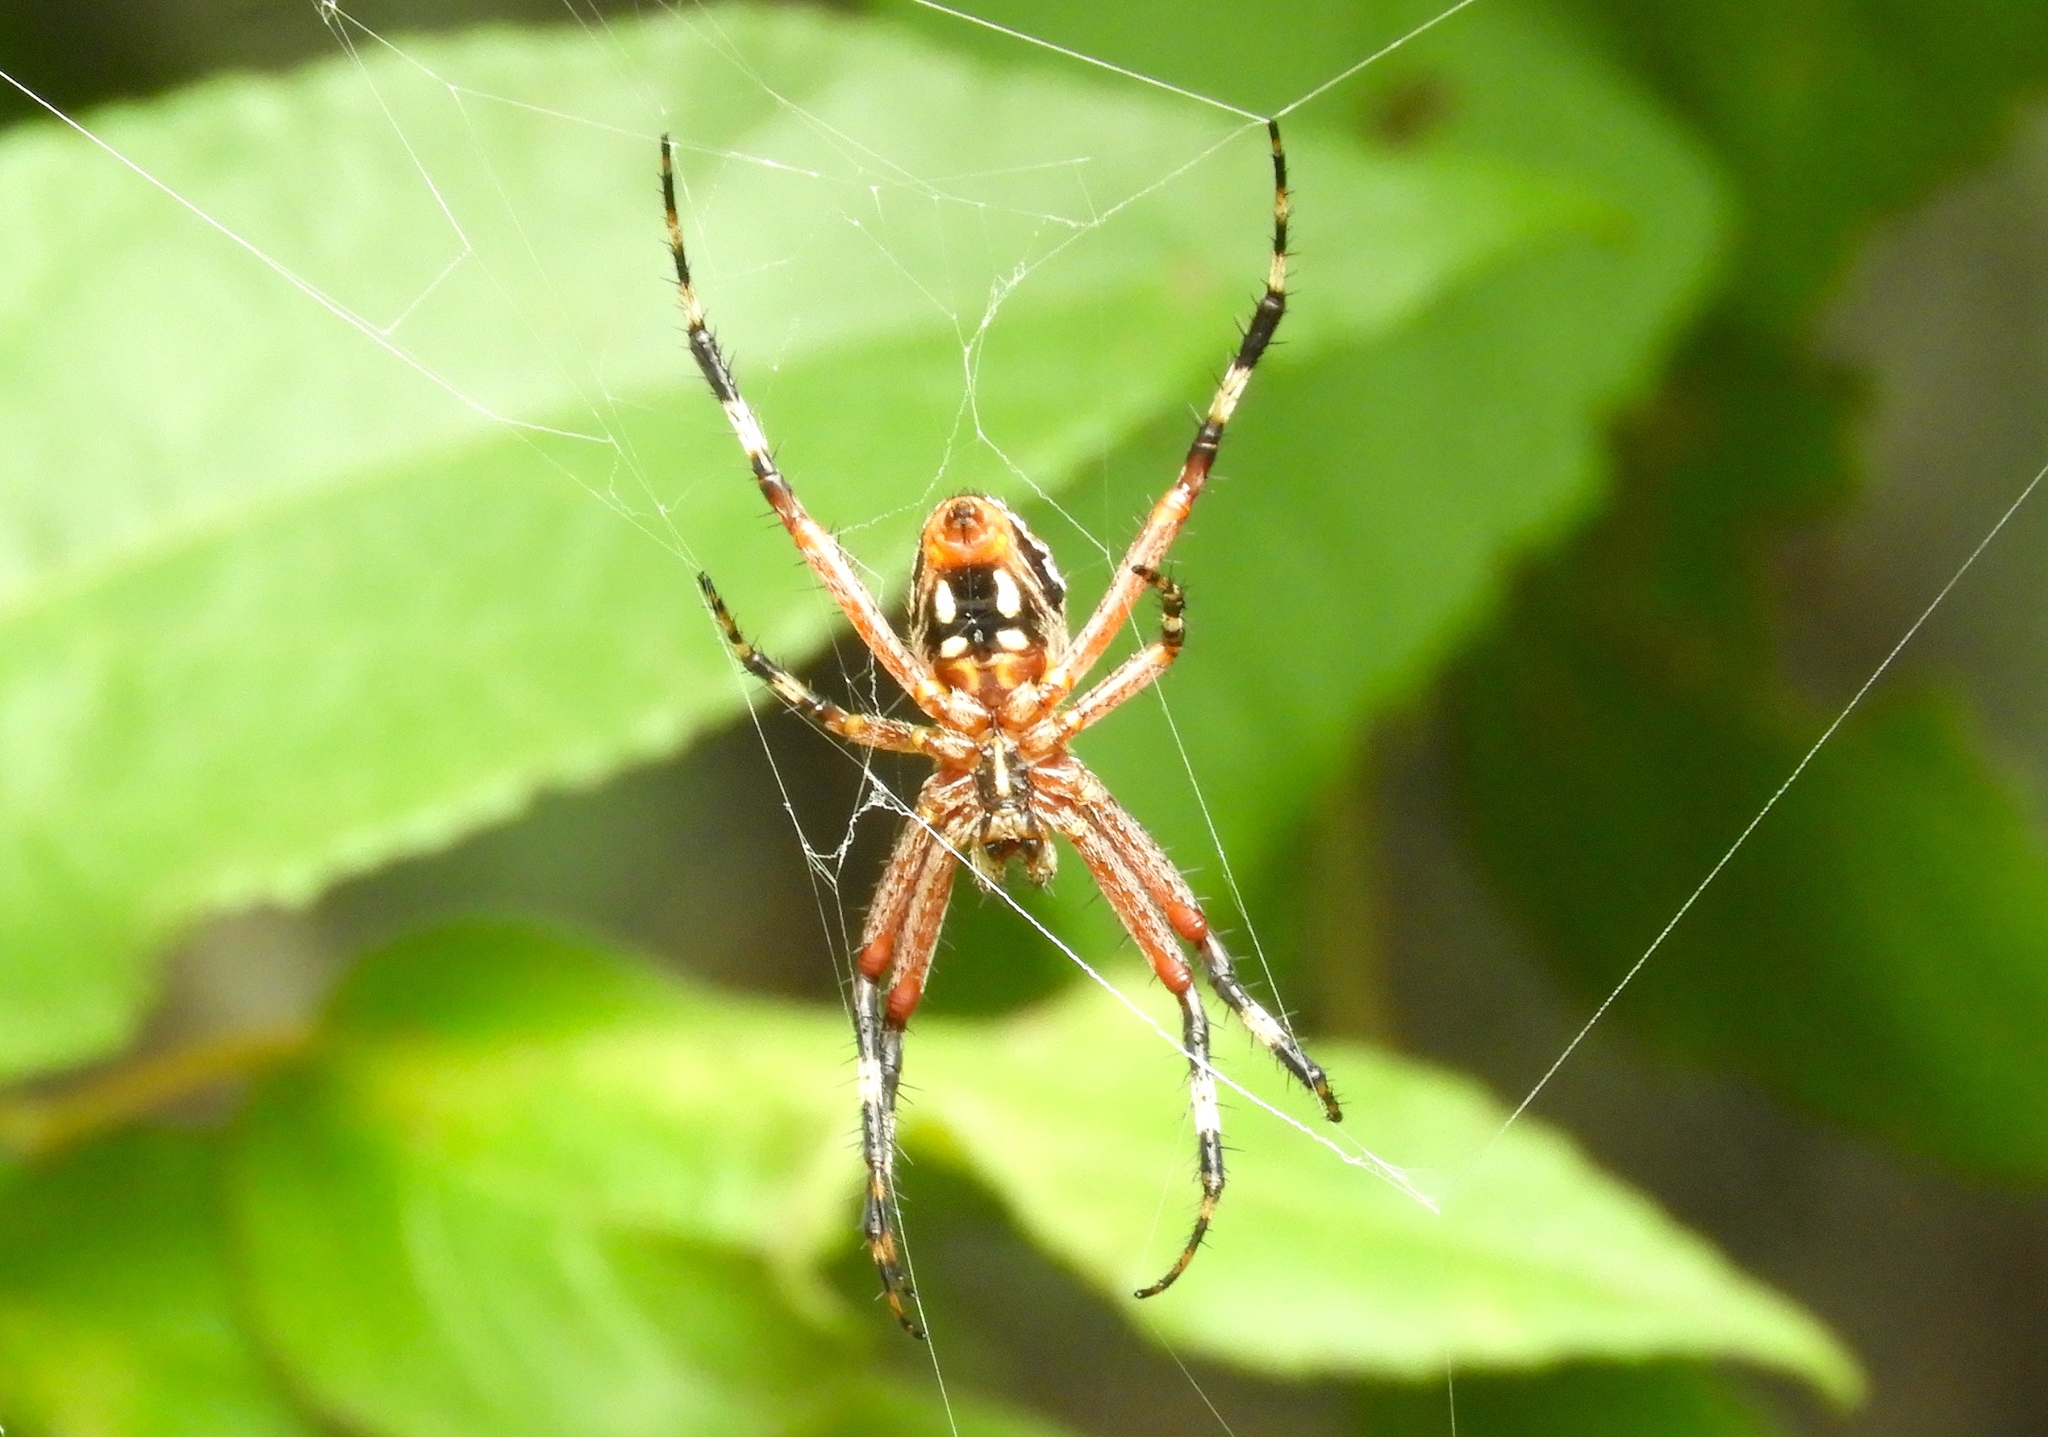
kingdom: Animalia
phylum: Arthropoda
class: Arachnida
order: Araneae
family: Araneidae
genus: Neoscona
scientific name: Neoscona
